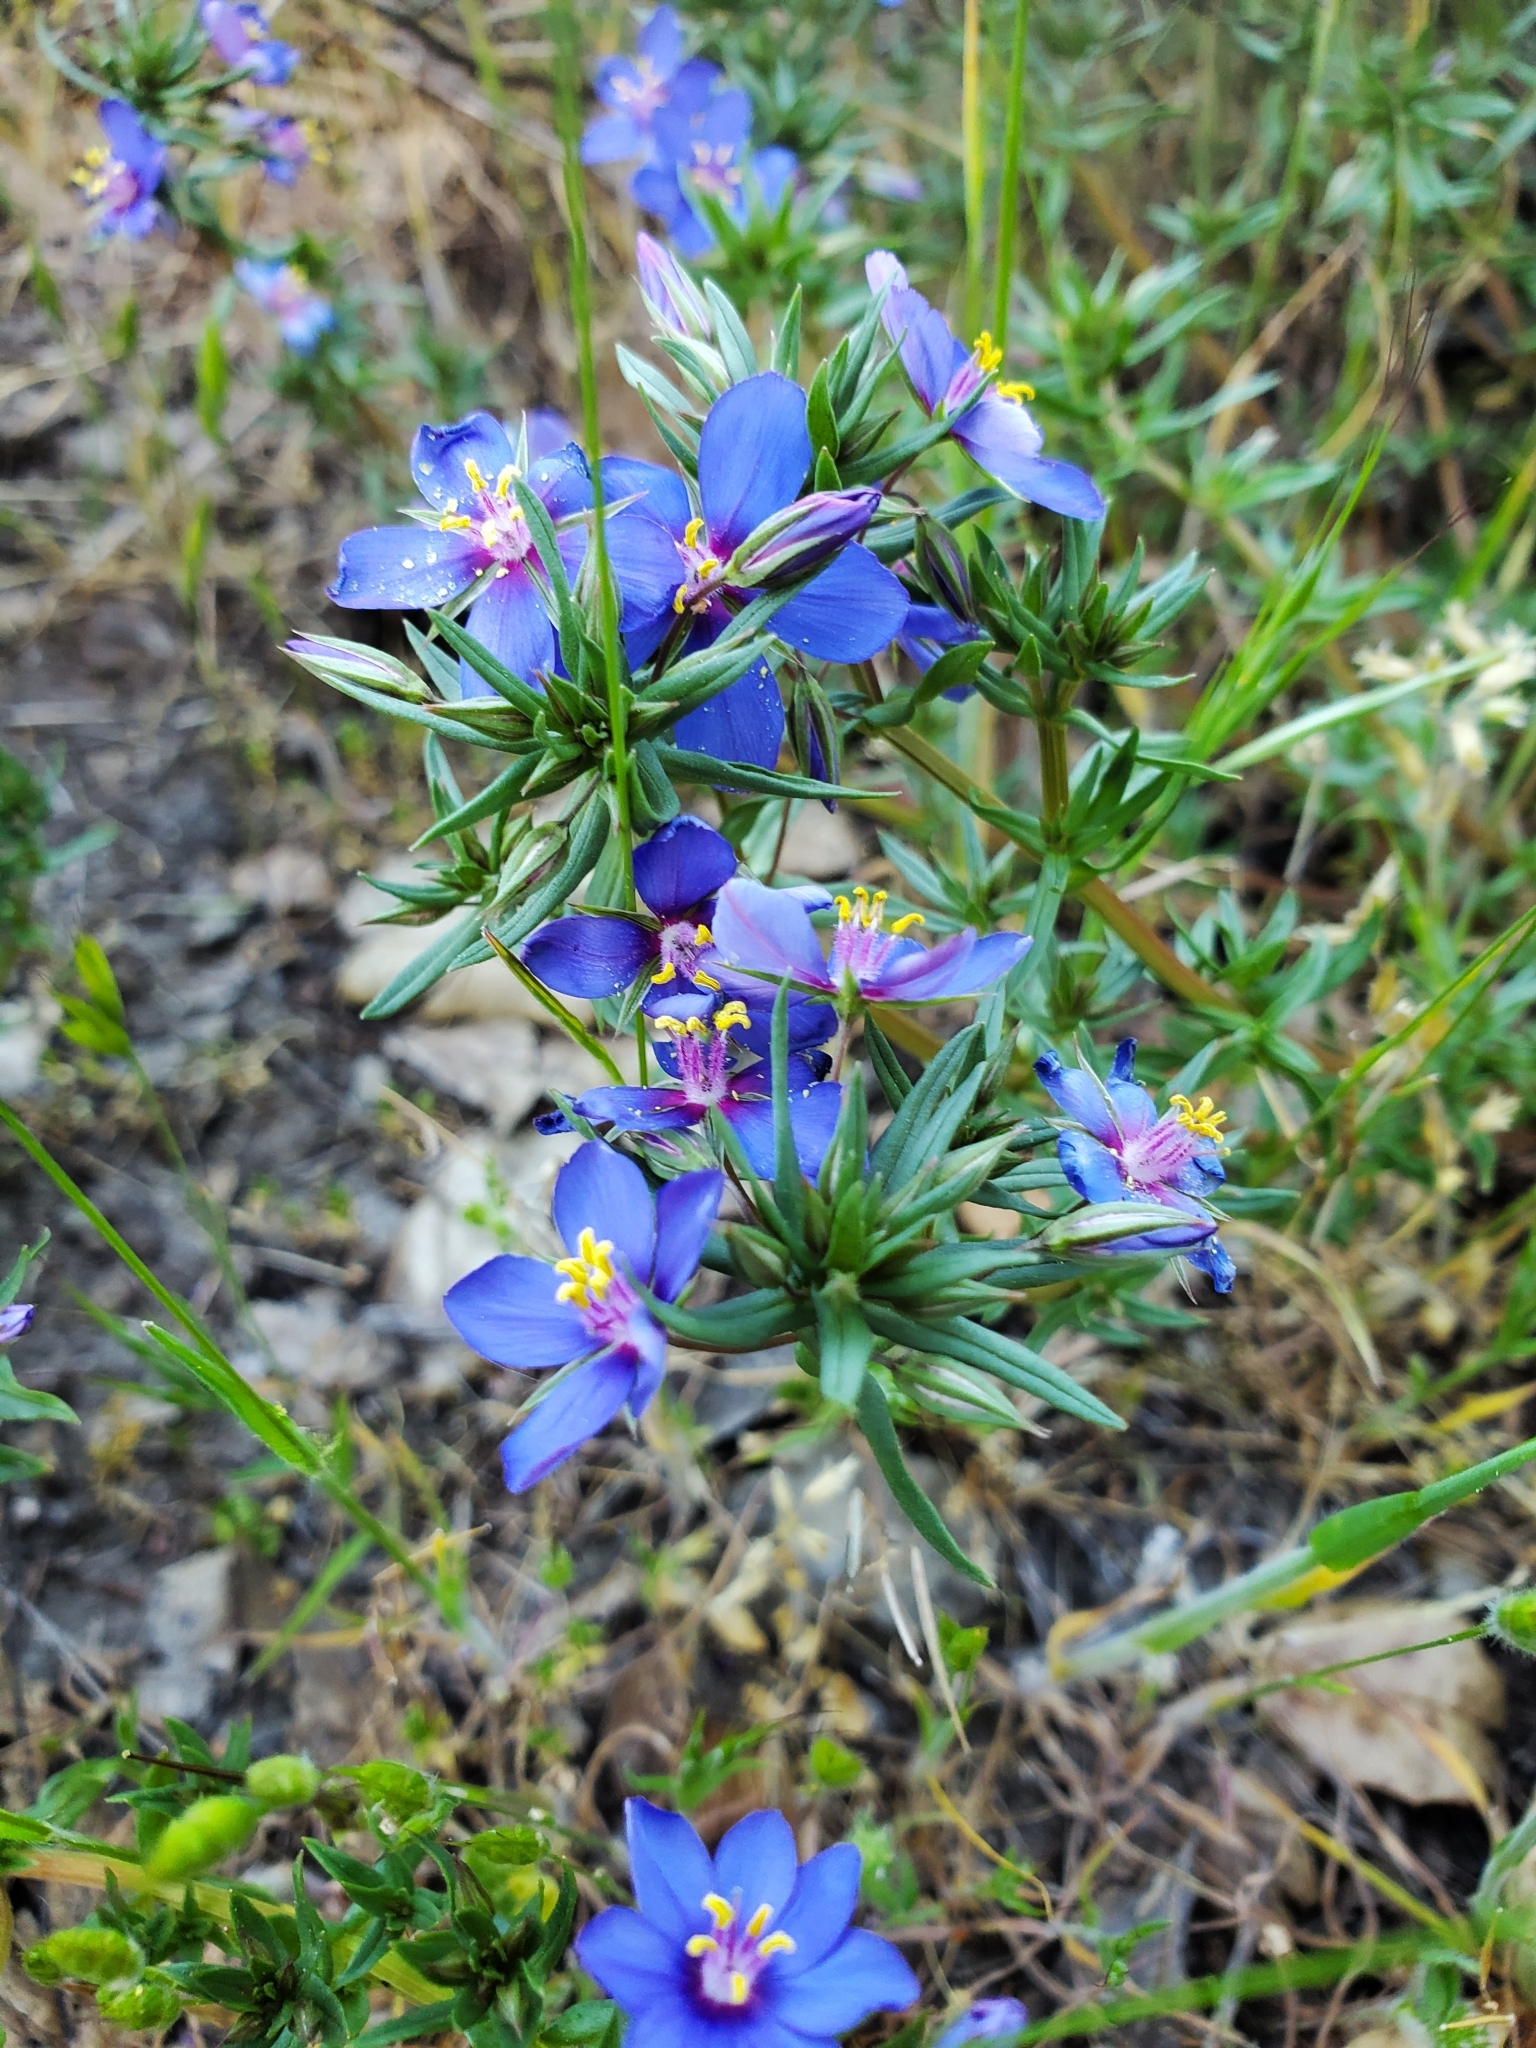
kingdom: Plantae
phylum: Tracheophyta
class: Magnoliopsida
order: Ericales
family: Primulaceae
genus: Lysimachia
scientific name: Lysimachia monelli
